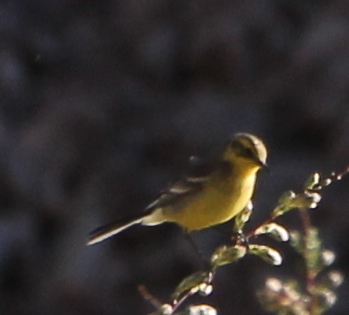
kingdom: Animalia
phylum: Chordata
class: Aves
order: Passeriformes
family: Motacillidae
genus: Motacilla
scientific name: Motacilla citreola
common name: Citrine wagtail
